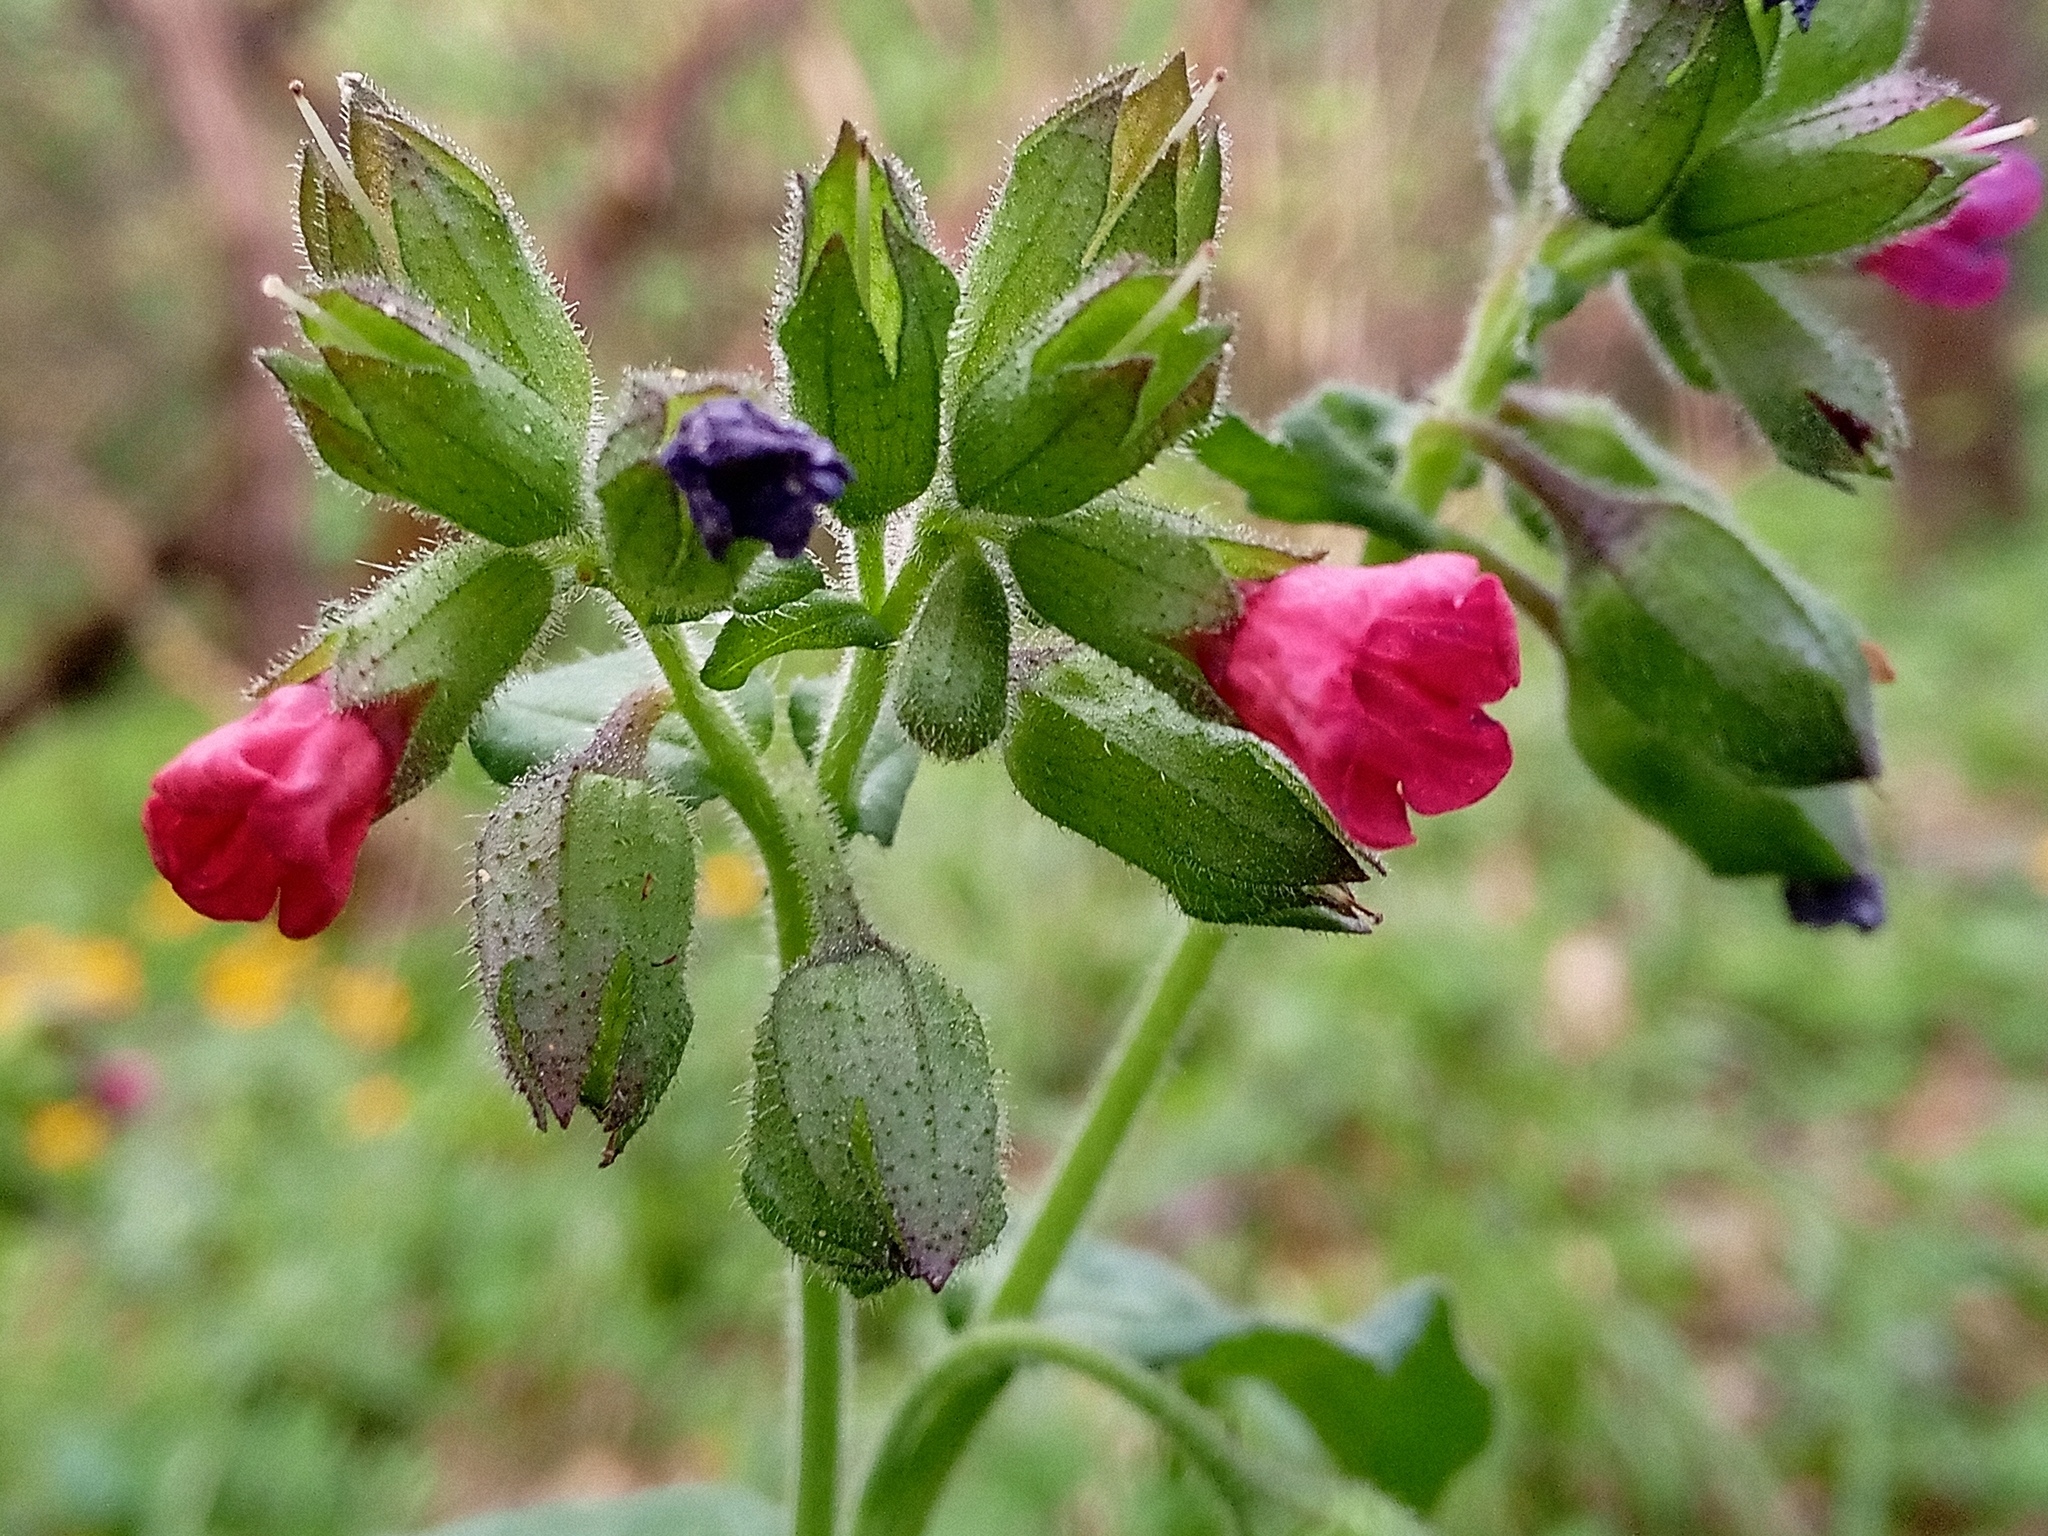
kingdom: Plantae
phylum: Tracheophyta
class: Magnoliopsida
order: Boraginales
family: Boraginaceae
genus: Pulmonaria
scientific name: Pulmonaria obscura
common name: Suffolk lungwort
